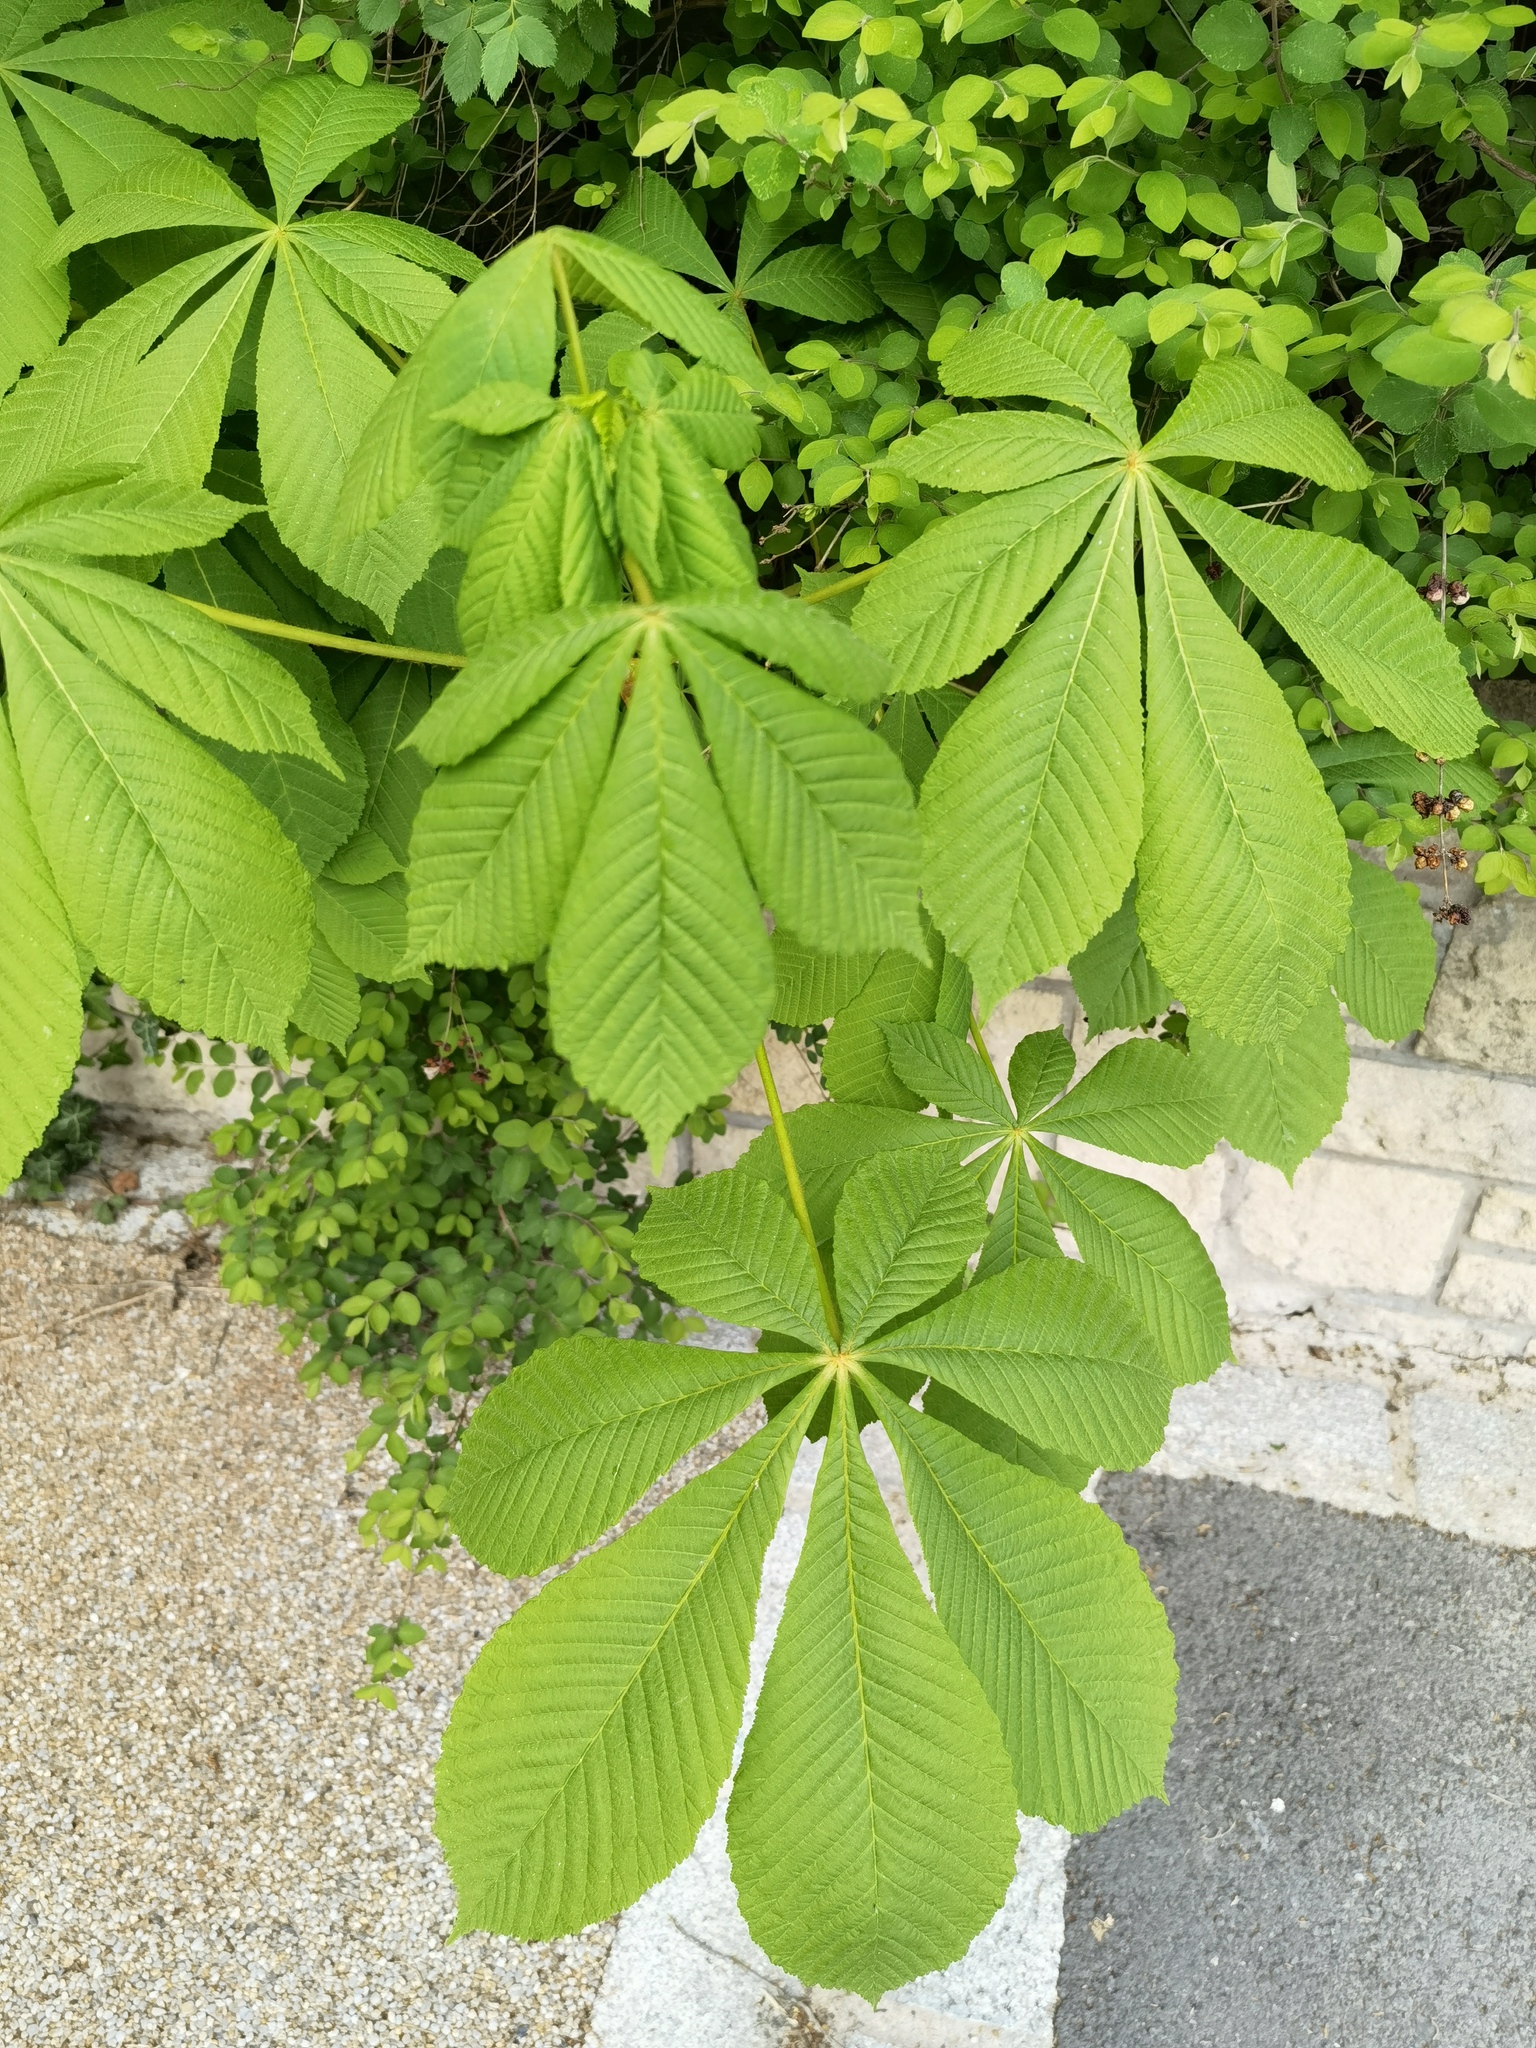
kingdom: Plantae
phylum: Tracheophyta
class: Magnoliopsida
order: Sapindales
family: Sapindaceae
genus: Aesculus
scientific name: Aesculus hippocastanum
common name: Horse-chestnut
